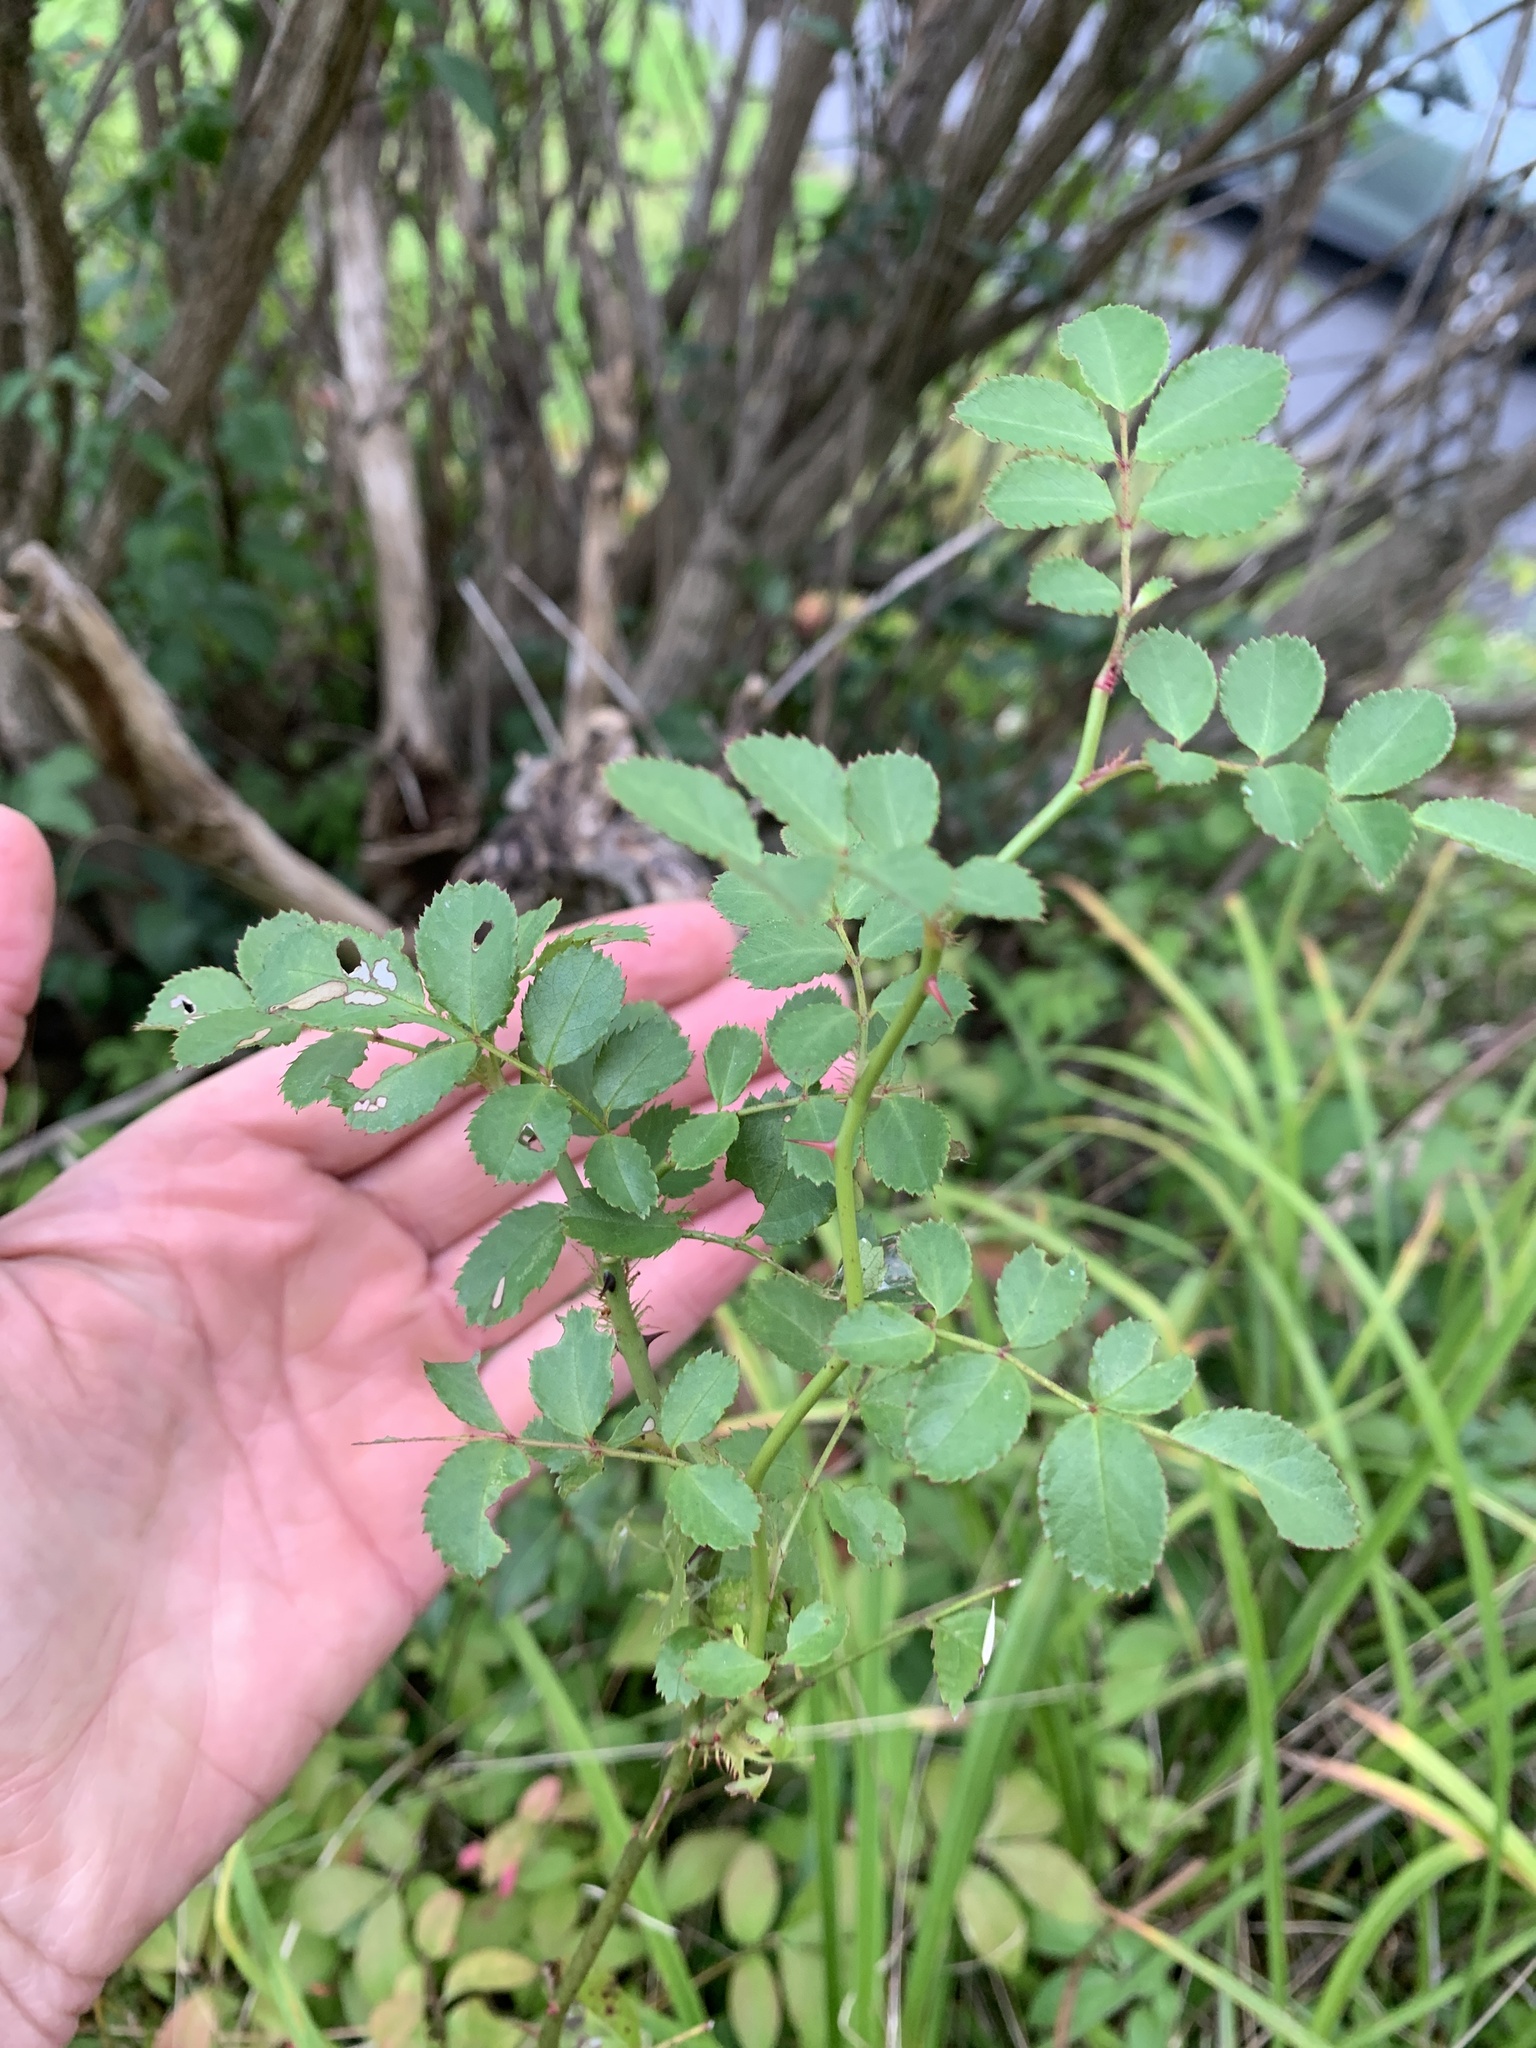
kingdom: Plantae
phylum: Tracheophyta
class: Magnoliopsida
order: Rosales
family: Rosaceae
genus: Rosa
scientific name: Rosa multiflora
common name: Multiflora rose
